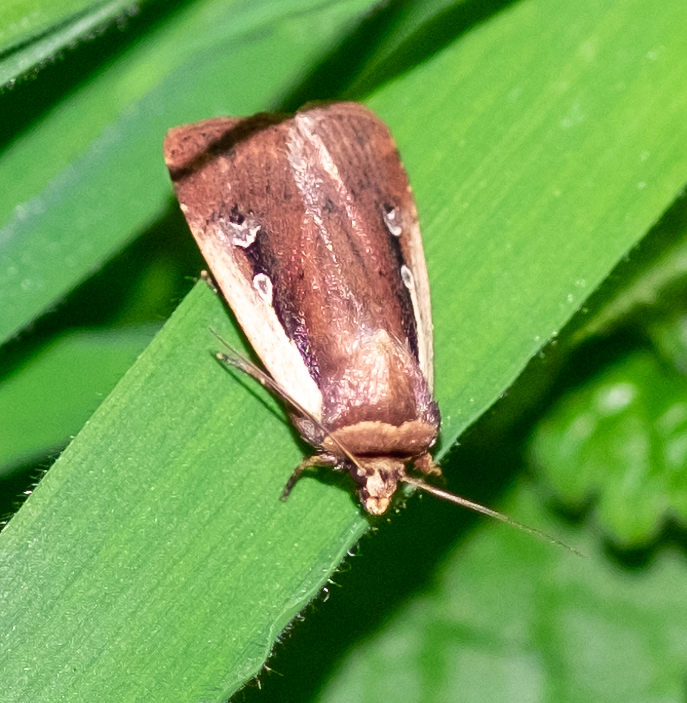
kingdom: Animalia
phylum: Arthropoda
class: Insecta
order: Lepidoptera
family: Noctuidae
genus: Ochropleura
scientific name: Ochropleura plecta
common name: Flame shoulder
